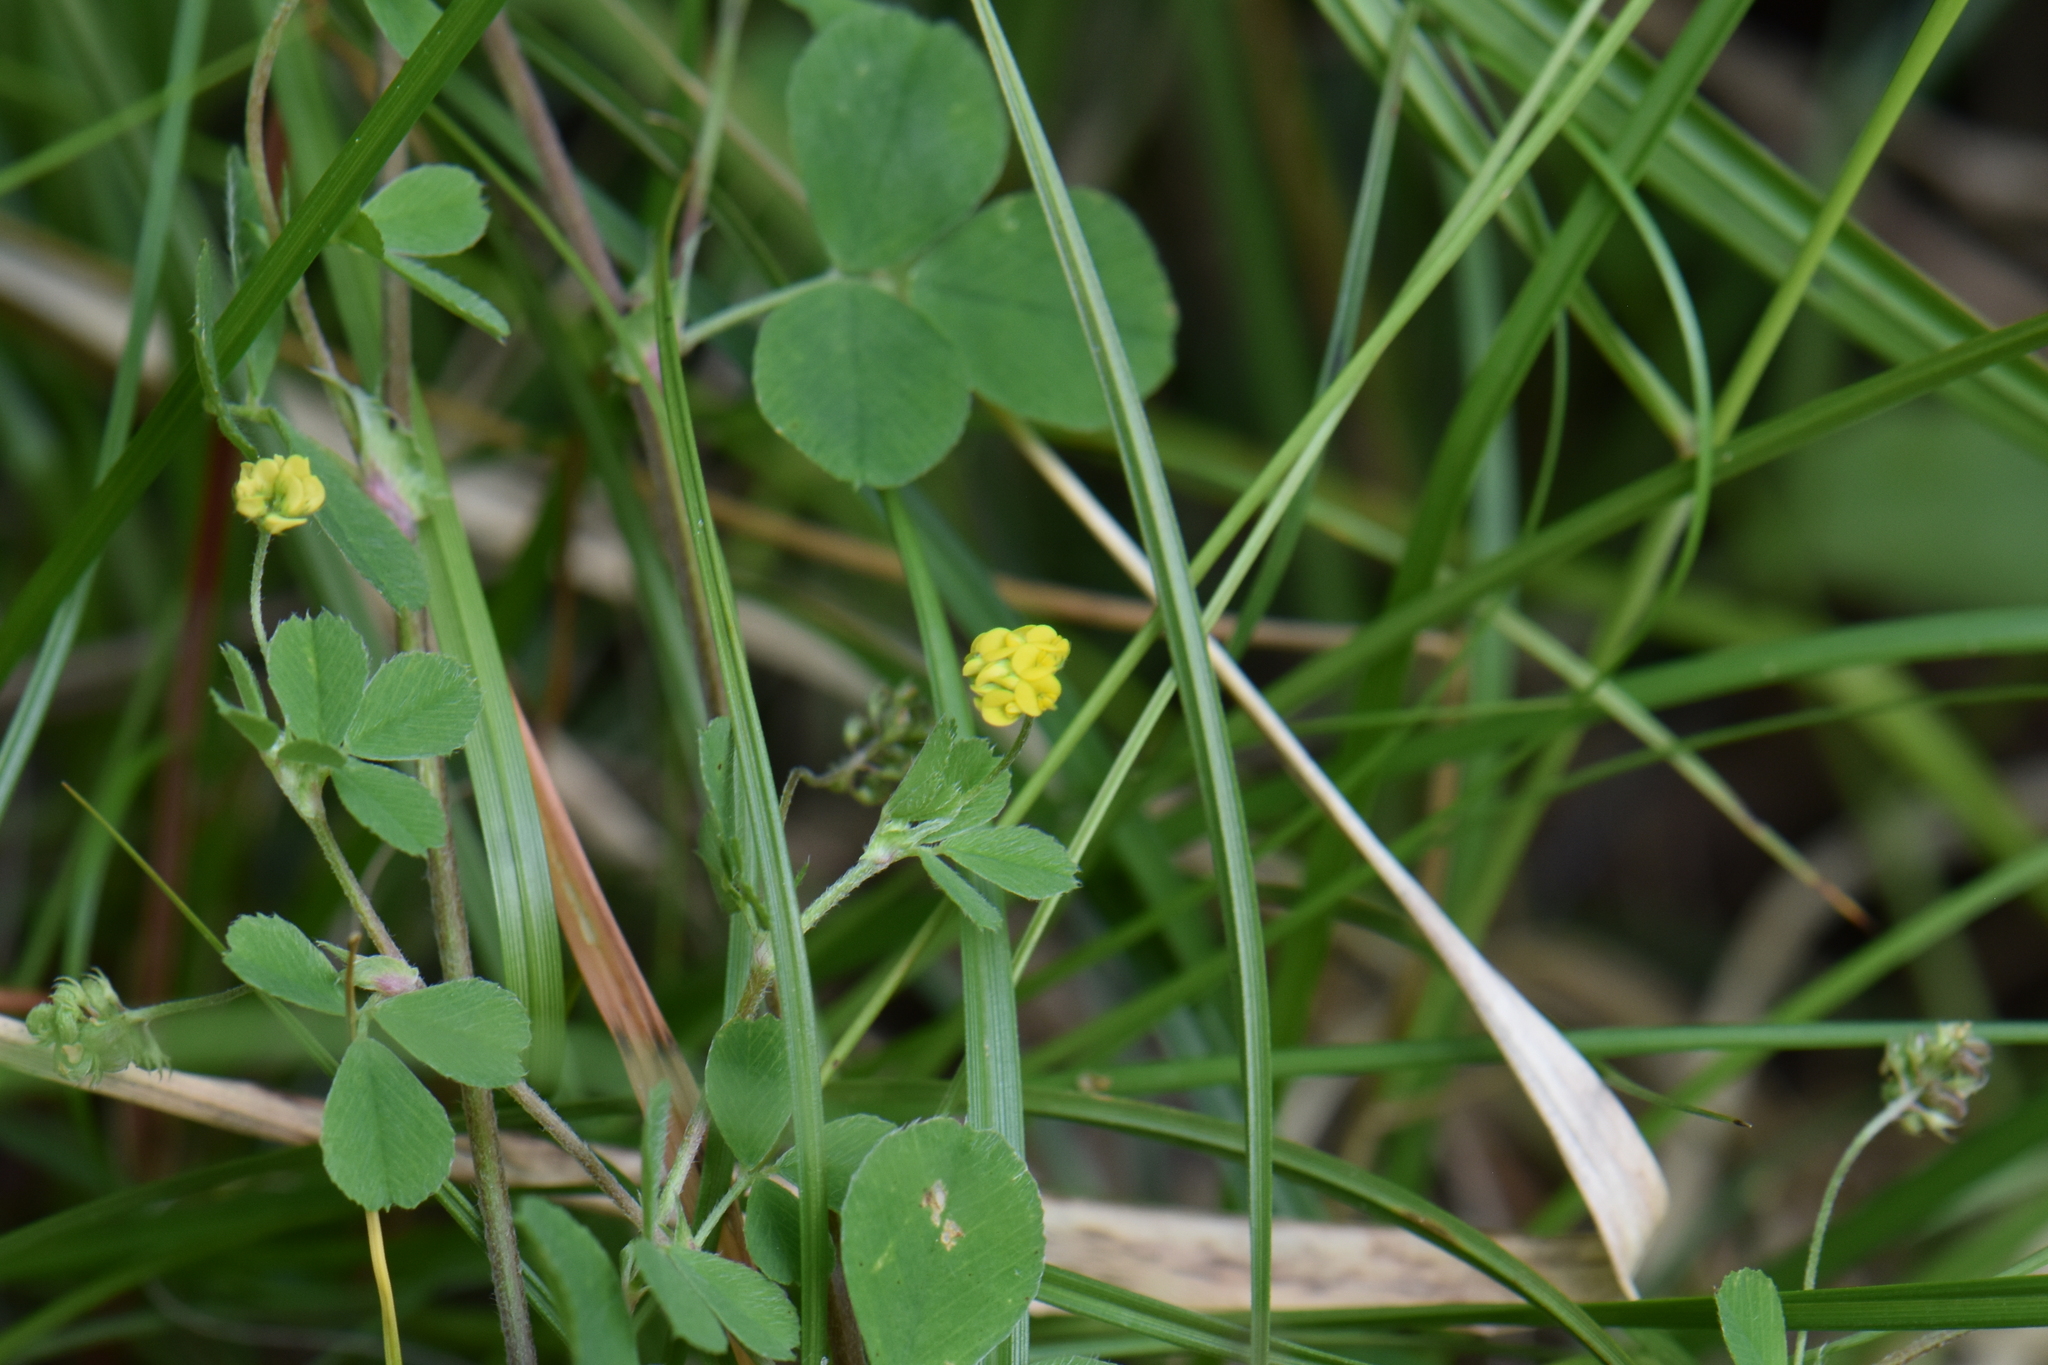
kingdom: Plantae
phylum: Tracheophyta
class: Magnoliopsida
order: Fabales
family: Fabaceae
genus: Medicago
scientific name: Medicago lupulina
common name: Black medick
